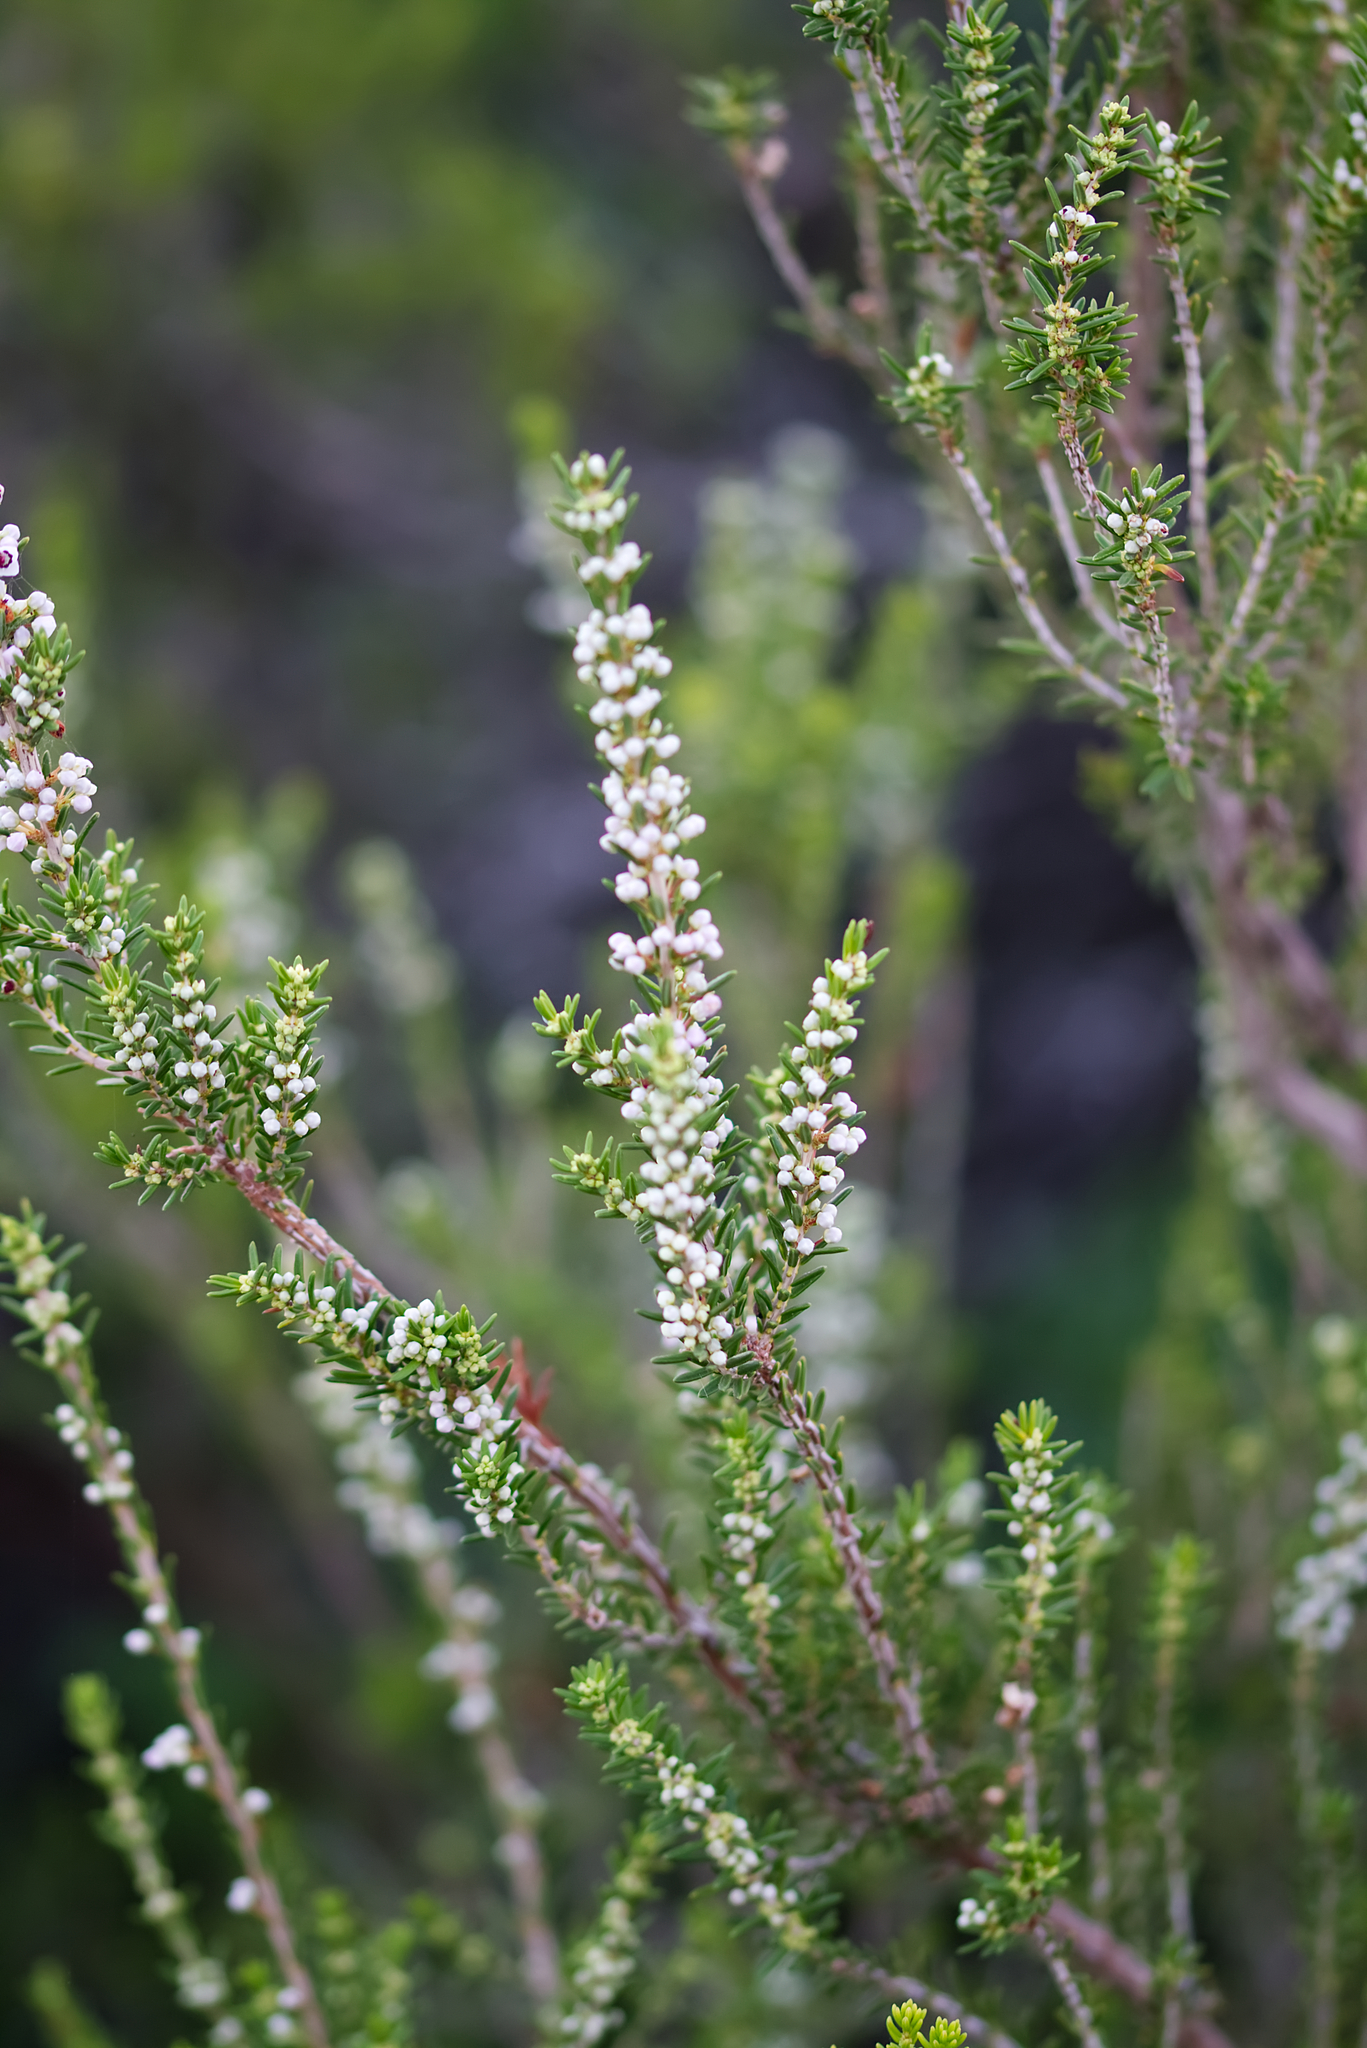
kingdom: Plantae
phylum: Tracheophyta
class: Magnoliopsida
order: Ericales
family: Ericaceae
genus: Erica
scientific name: Erica manipuliflora
